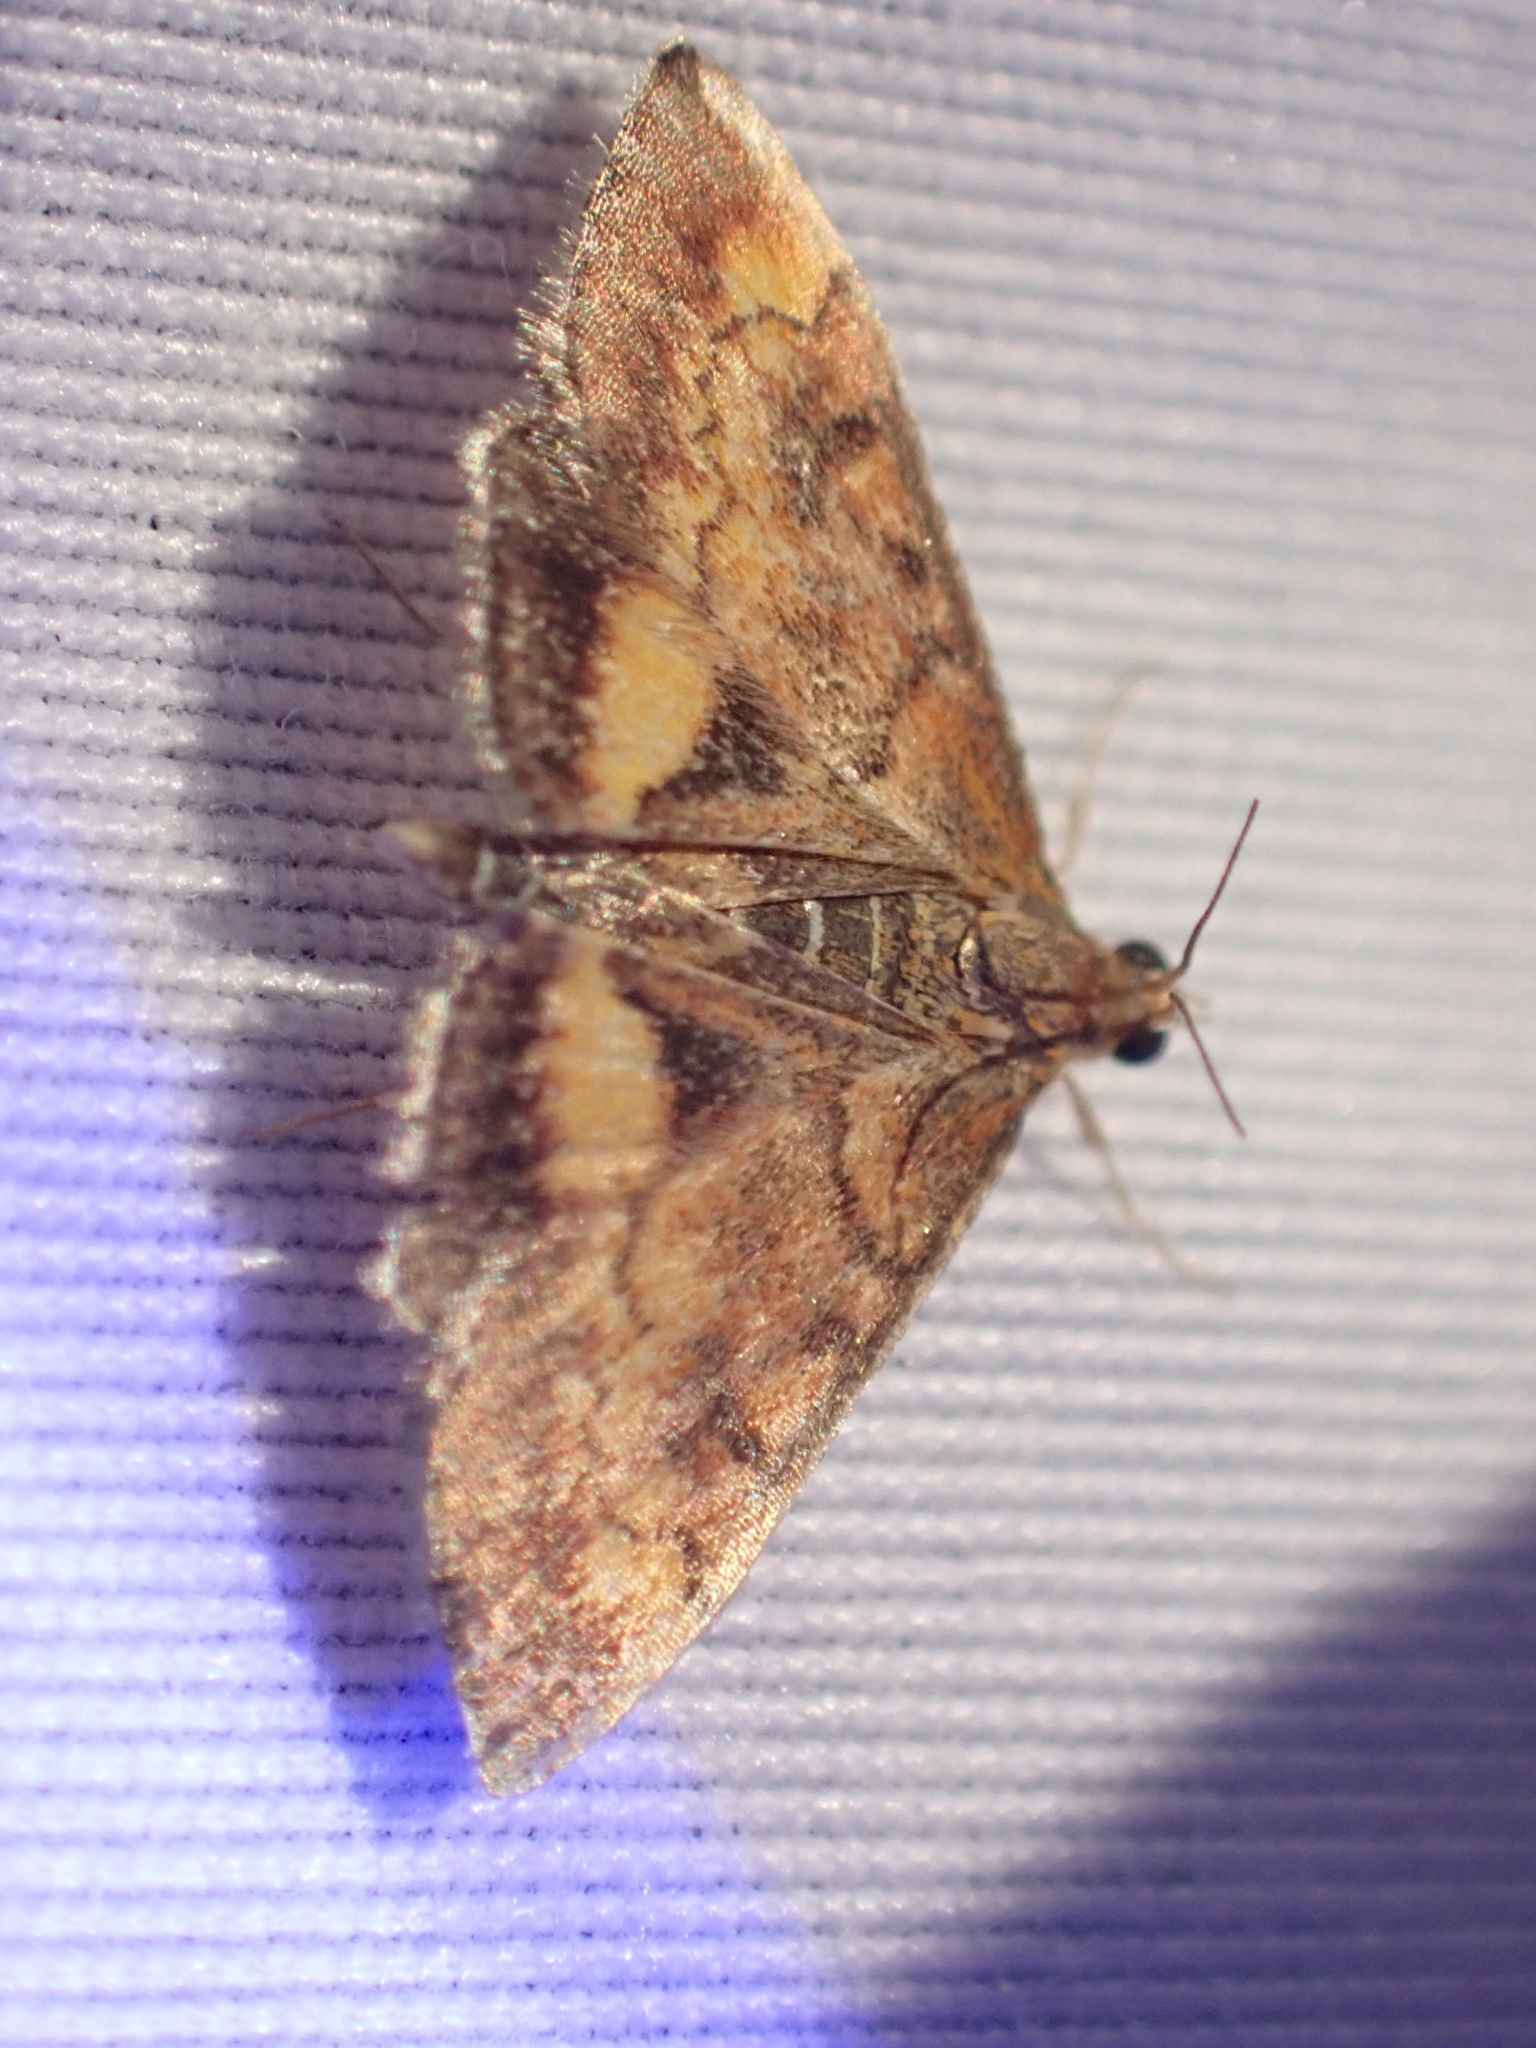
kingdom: Animalia
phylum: Arthropoda
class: Insecta
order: Lepidoptera
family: Crambidae
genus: Pyrausta
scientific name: Pyrausta californicalis
